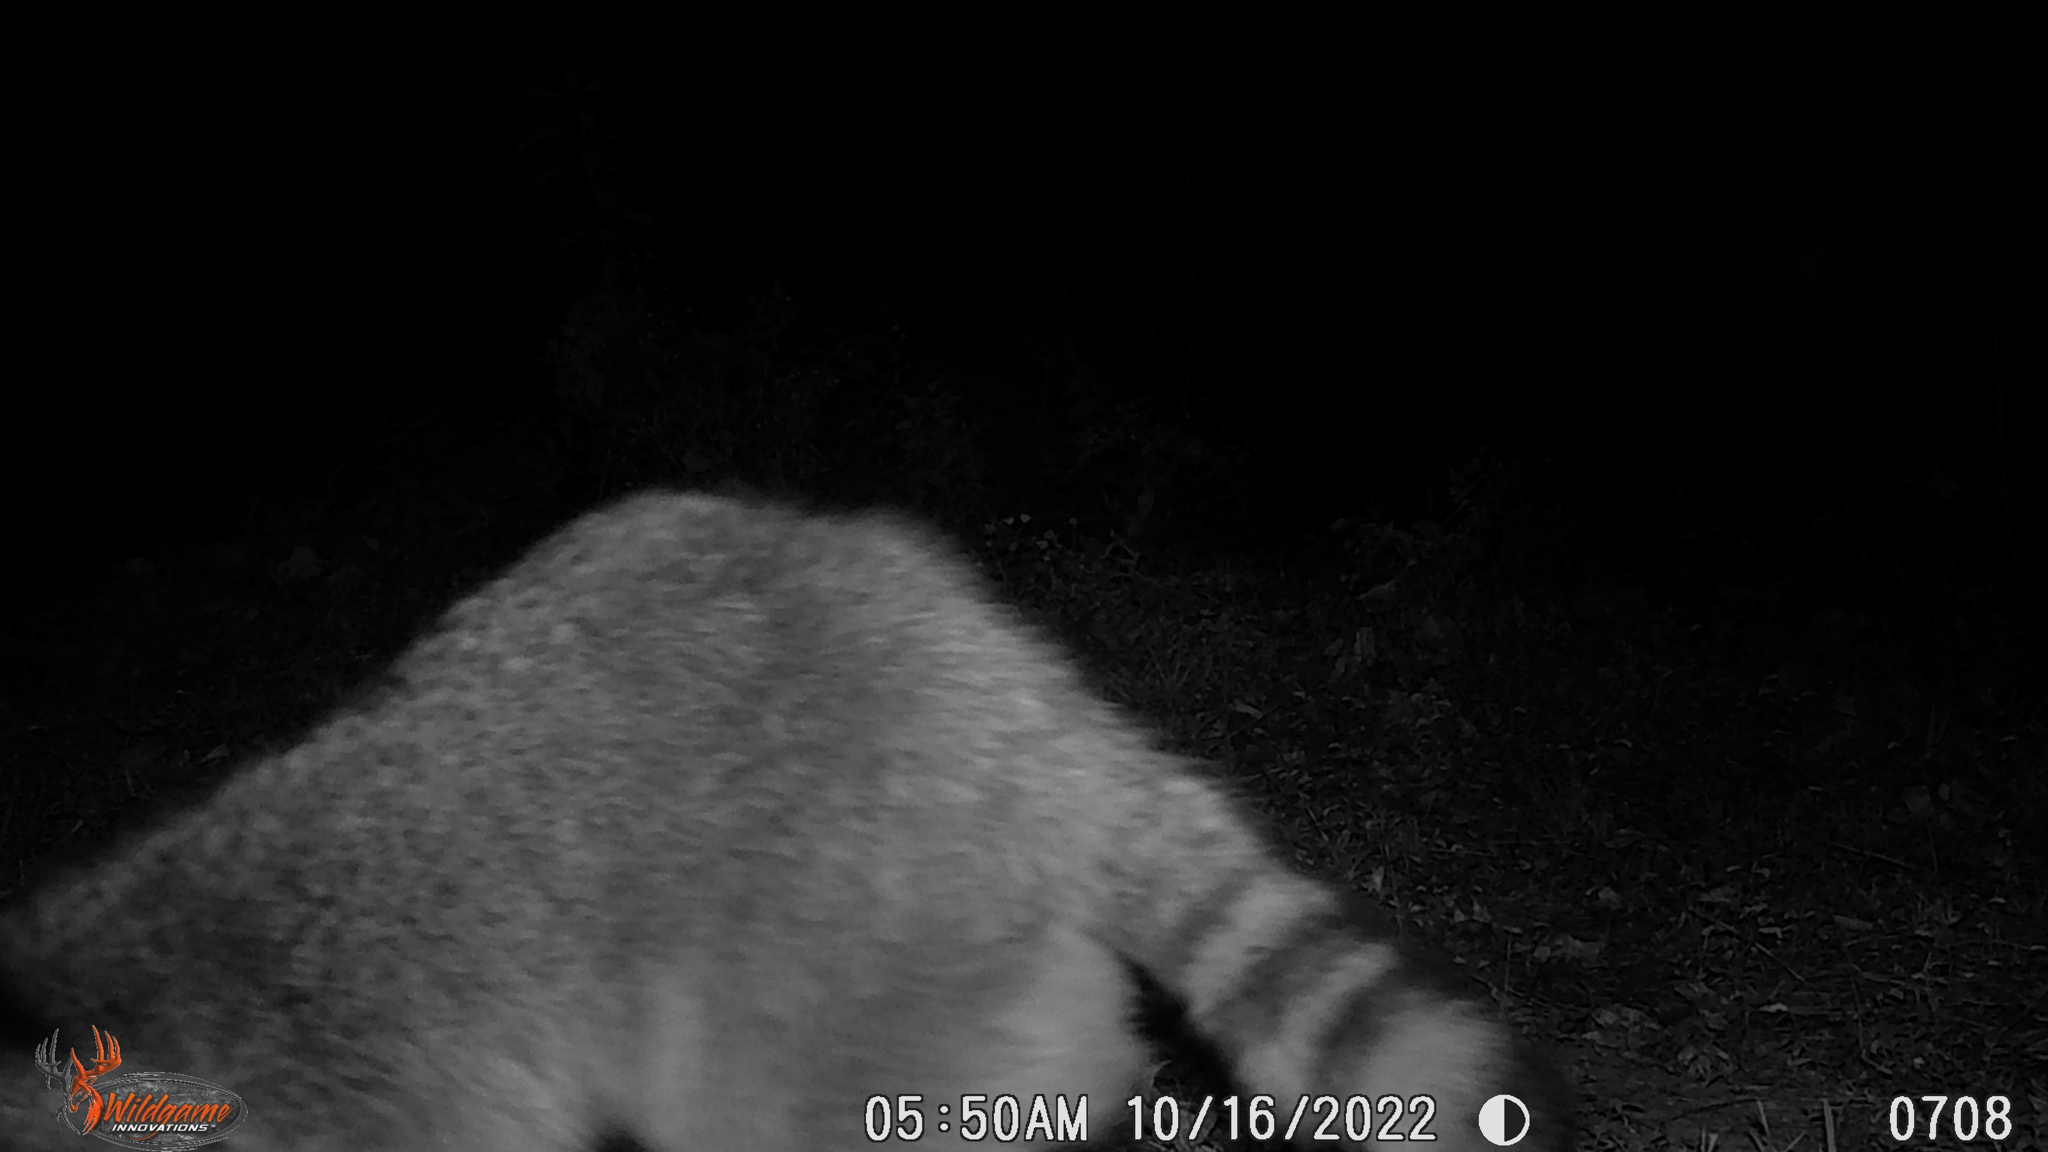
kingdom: Animalia
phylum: Chordata
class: Mammalia
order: Carnivora
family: Procyonidae
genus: Procyon
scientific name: Procyon lotor
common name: Raccoon
